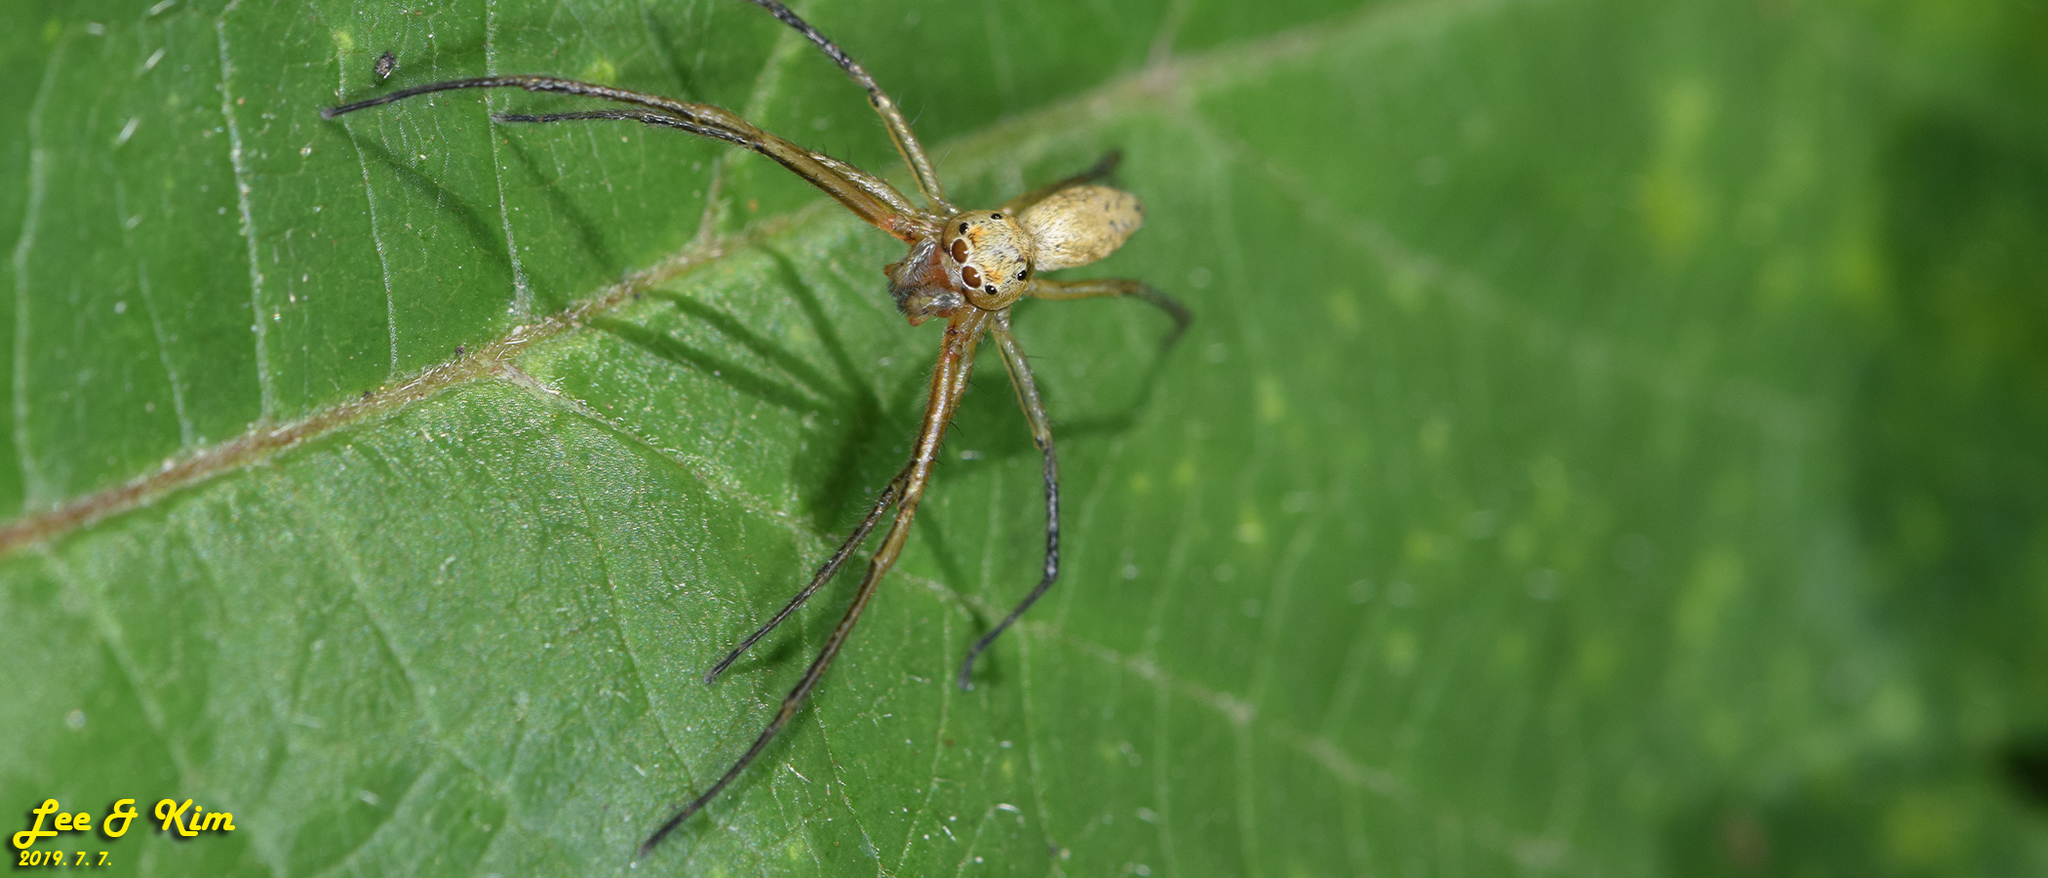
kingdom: Animalia
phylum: Arthropoda
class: Arachnida
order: Araneae
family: Salticidae
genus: Phintella
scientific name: Phintella abnormis
